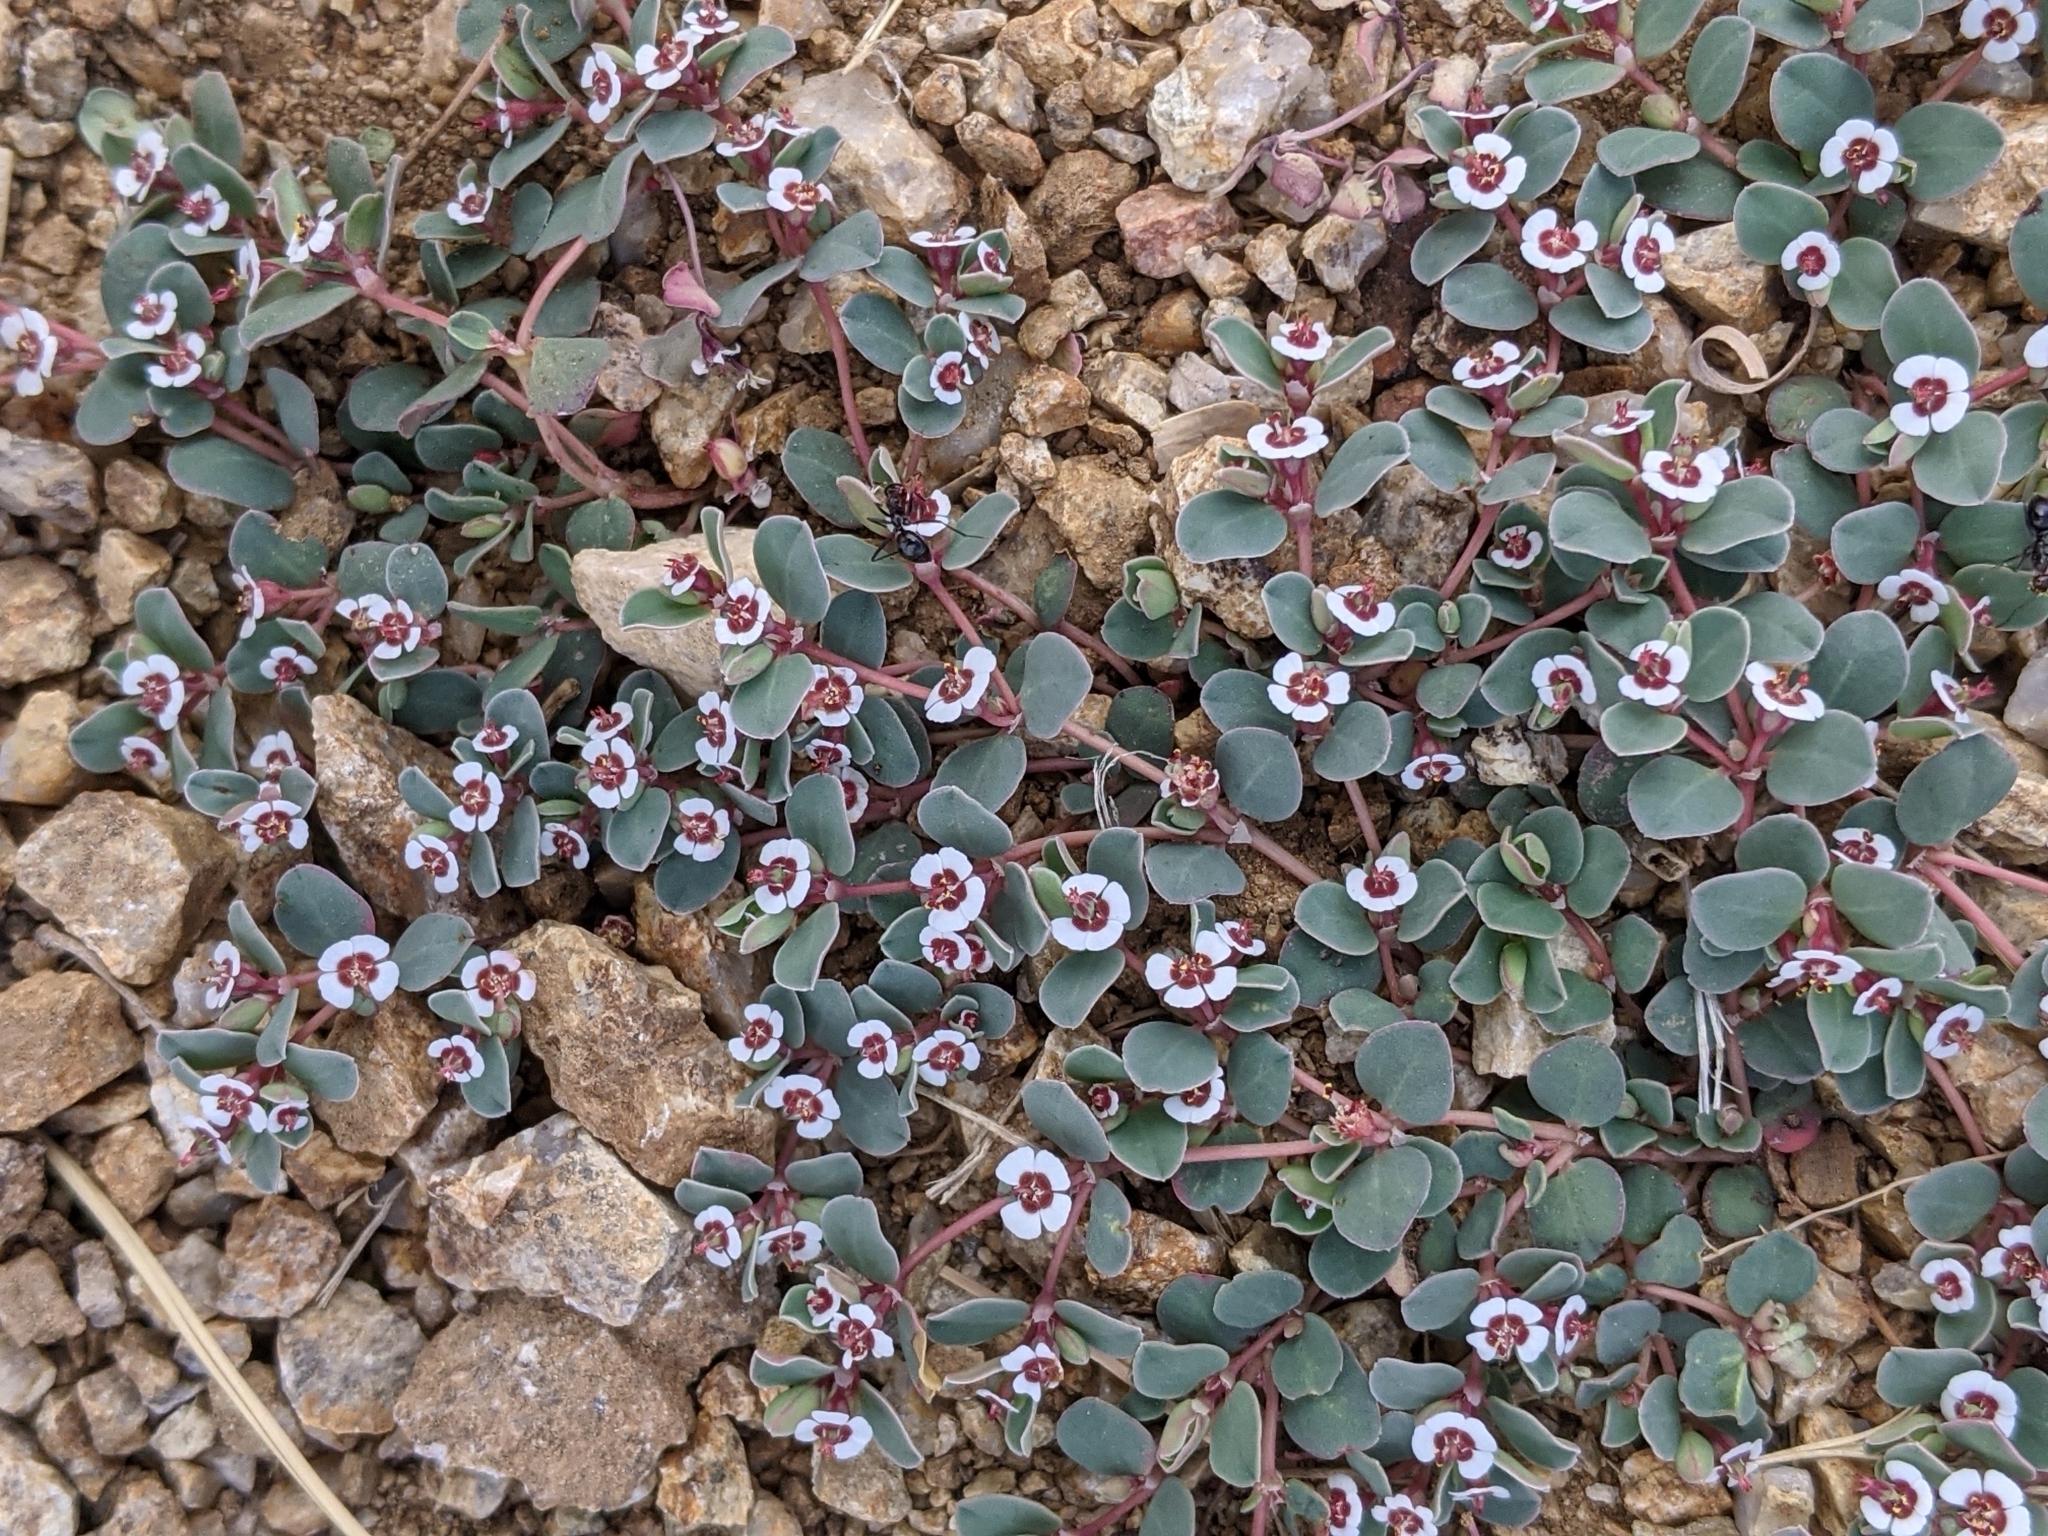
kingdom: Plantae
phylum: Tracheophyta
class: Magnoliopsida
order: Malpighiales
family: Euphorbiaceae
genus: Euphorbia
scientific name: Euphorbia albomarginata
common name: Whitemargin sandmat
